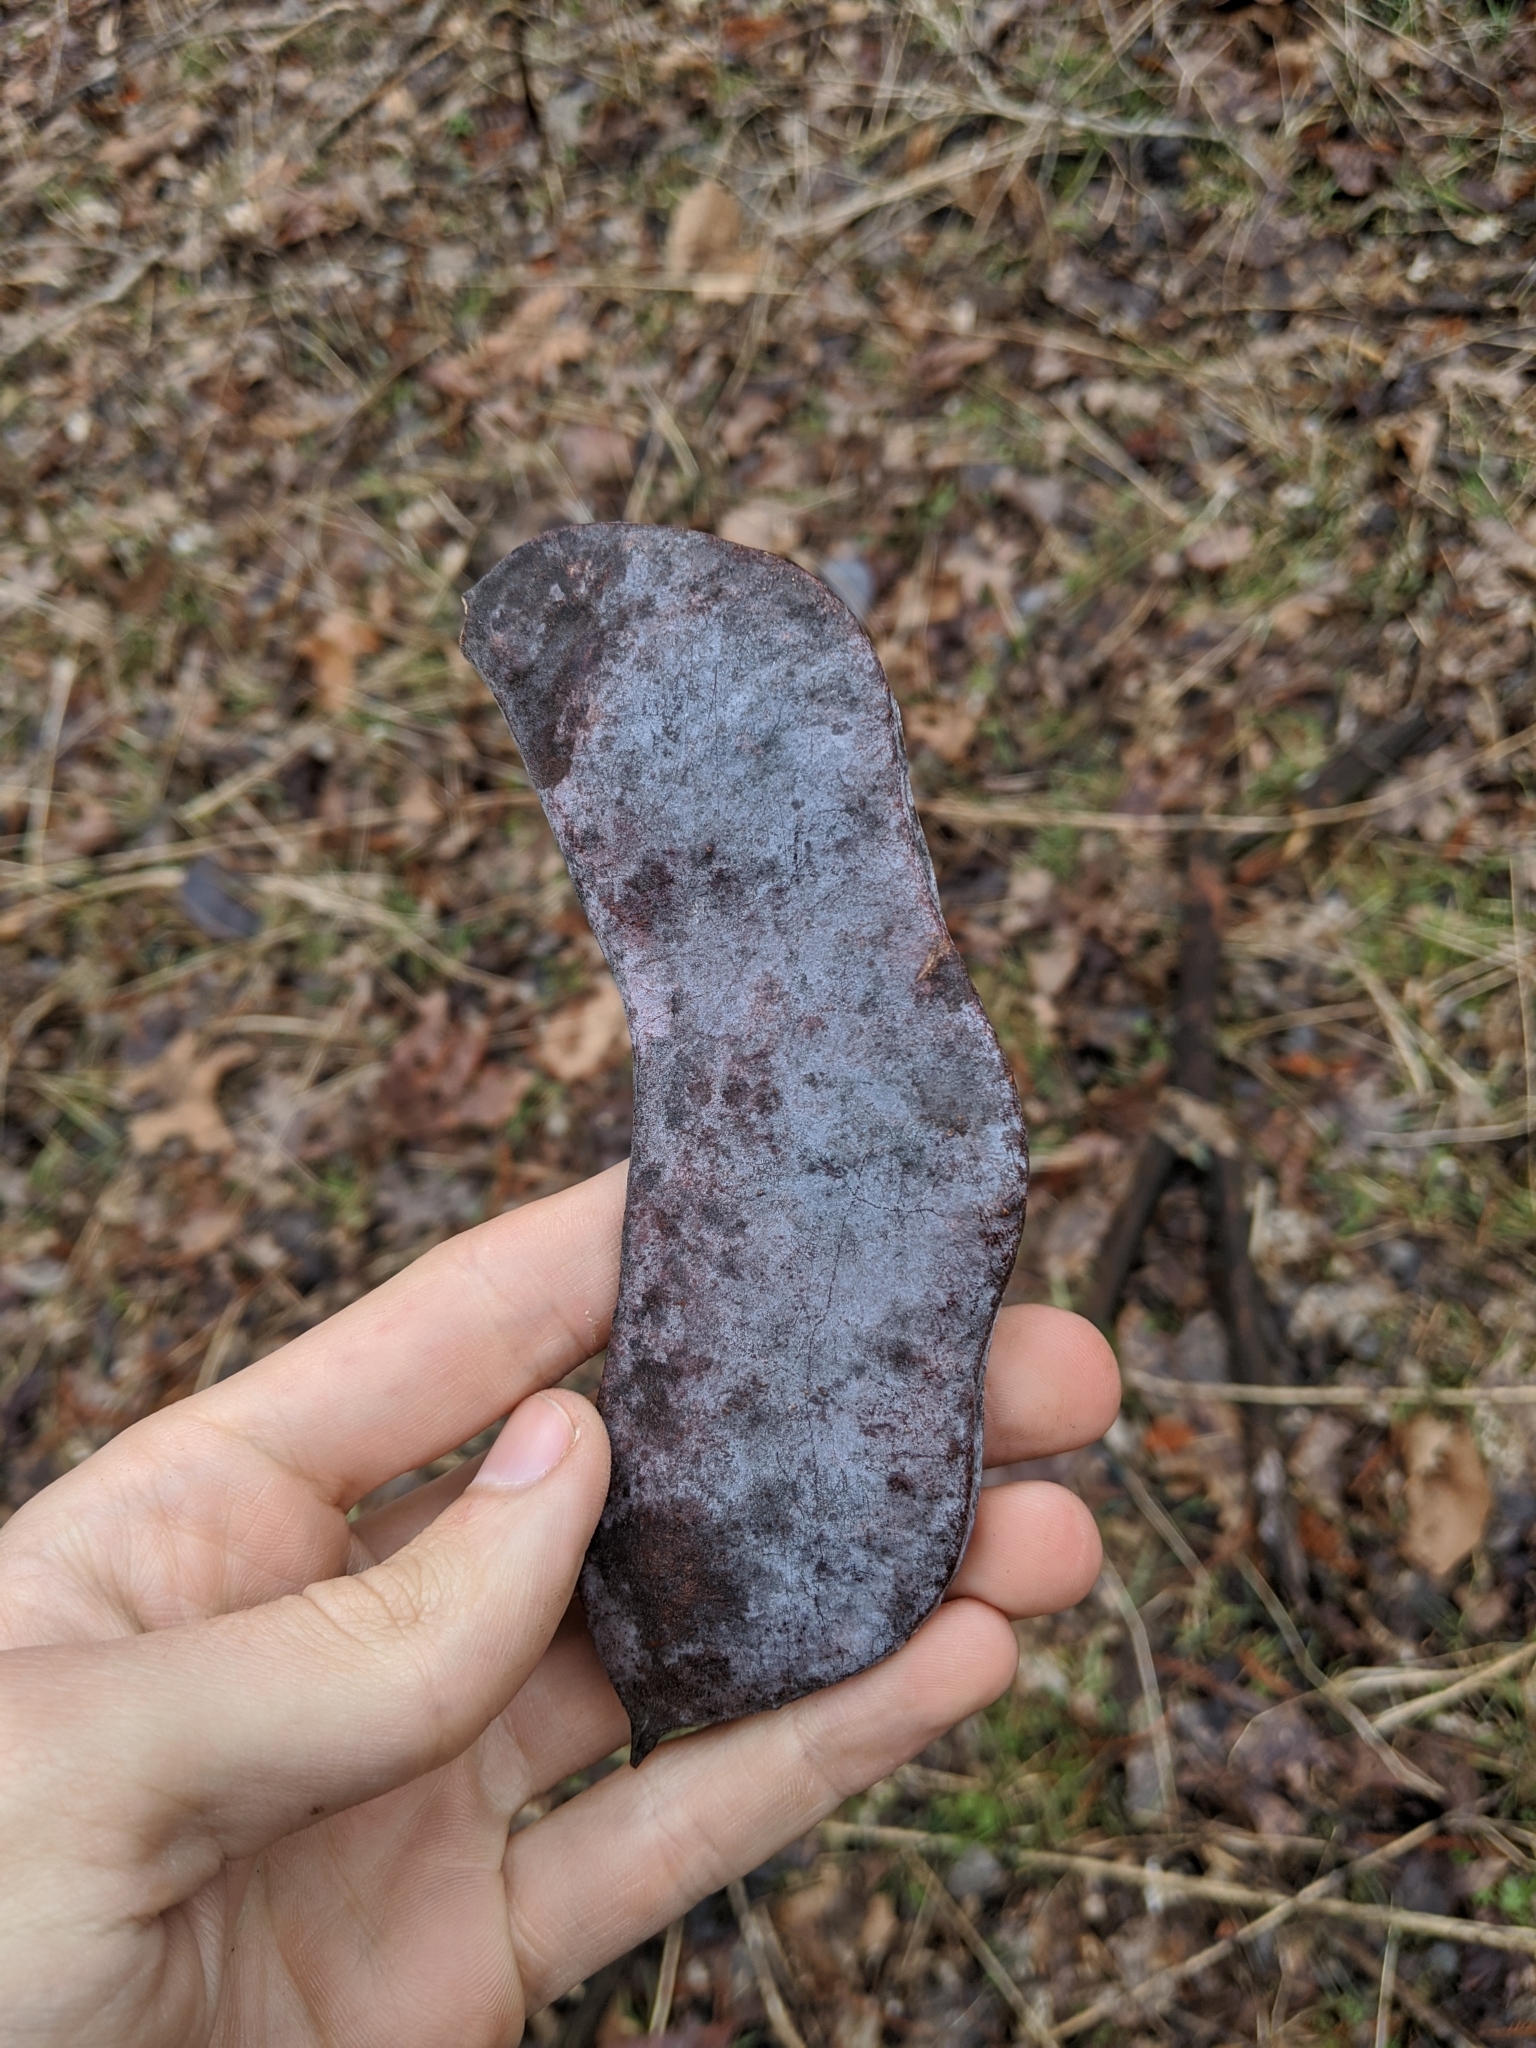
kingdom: Plantae
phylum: Tracheophyta
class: Magnoliopsida
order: Fabales
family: Fabaceae
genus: Gymnocladus
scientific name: Gymnocladus dioicus
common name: Kentucky coffee-tree
